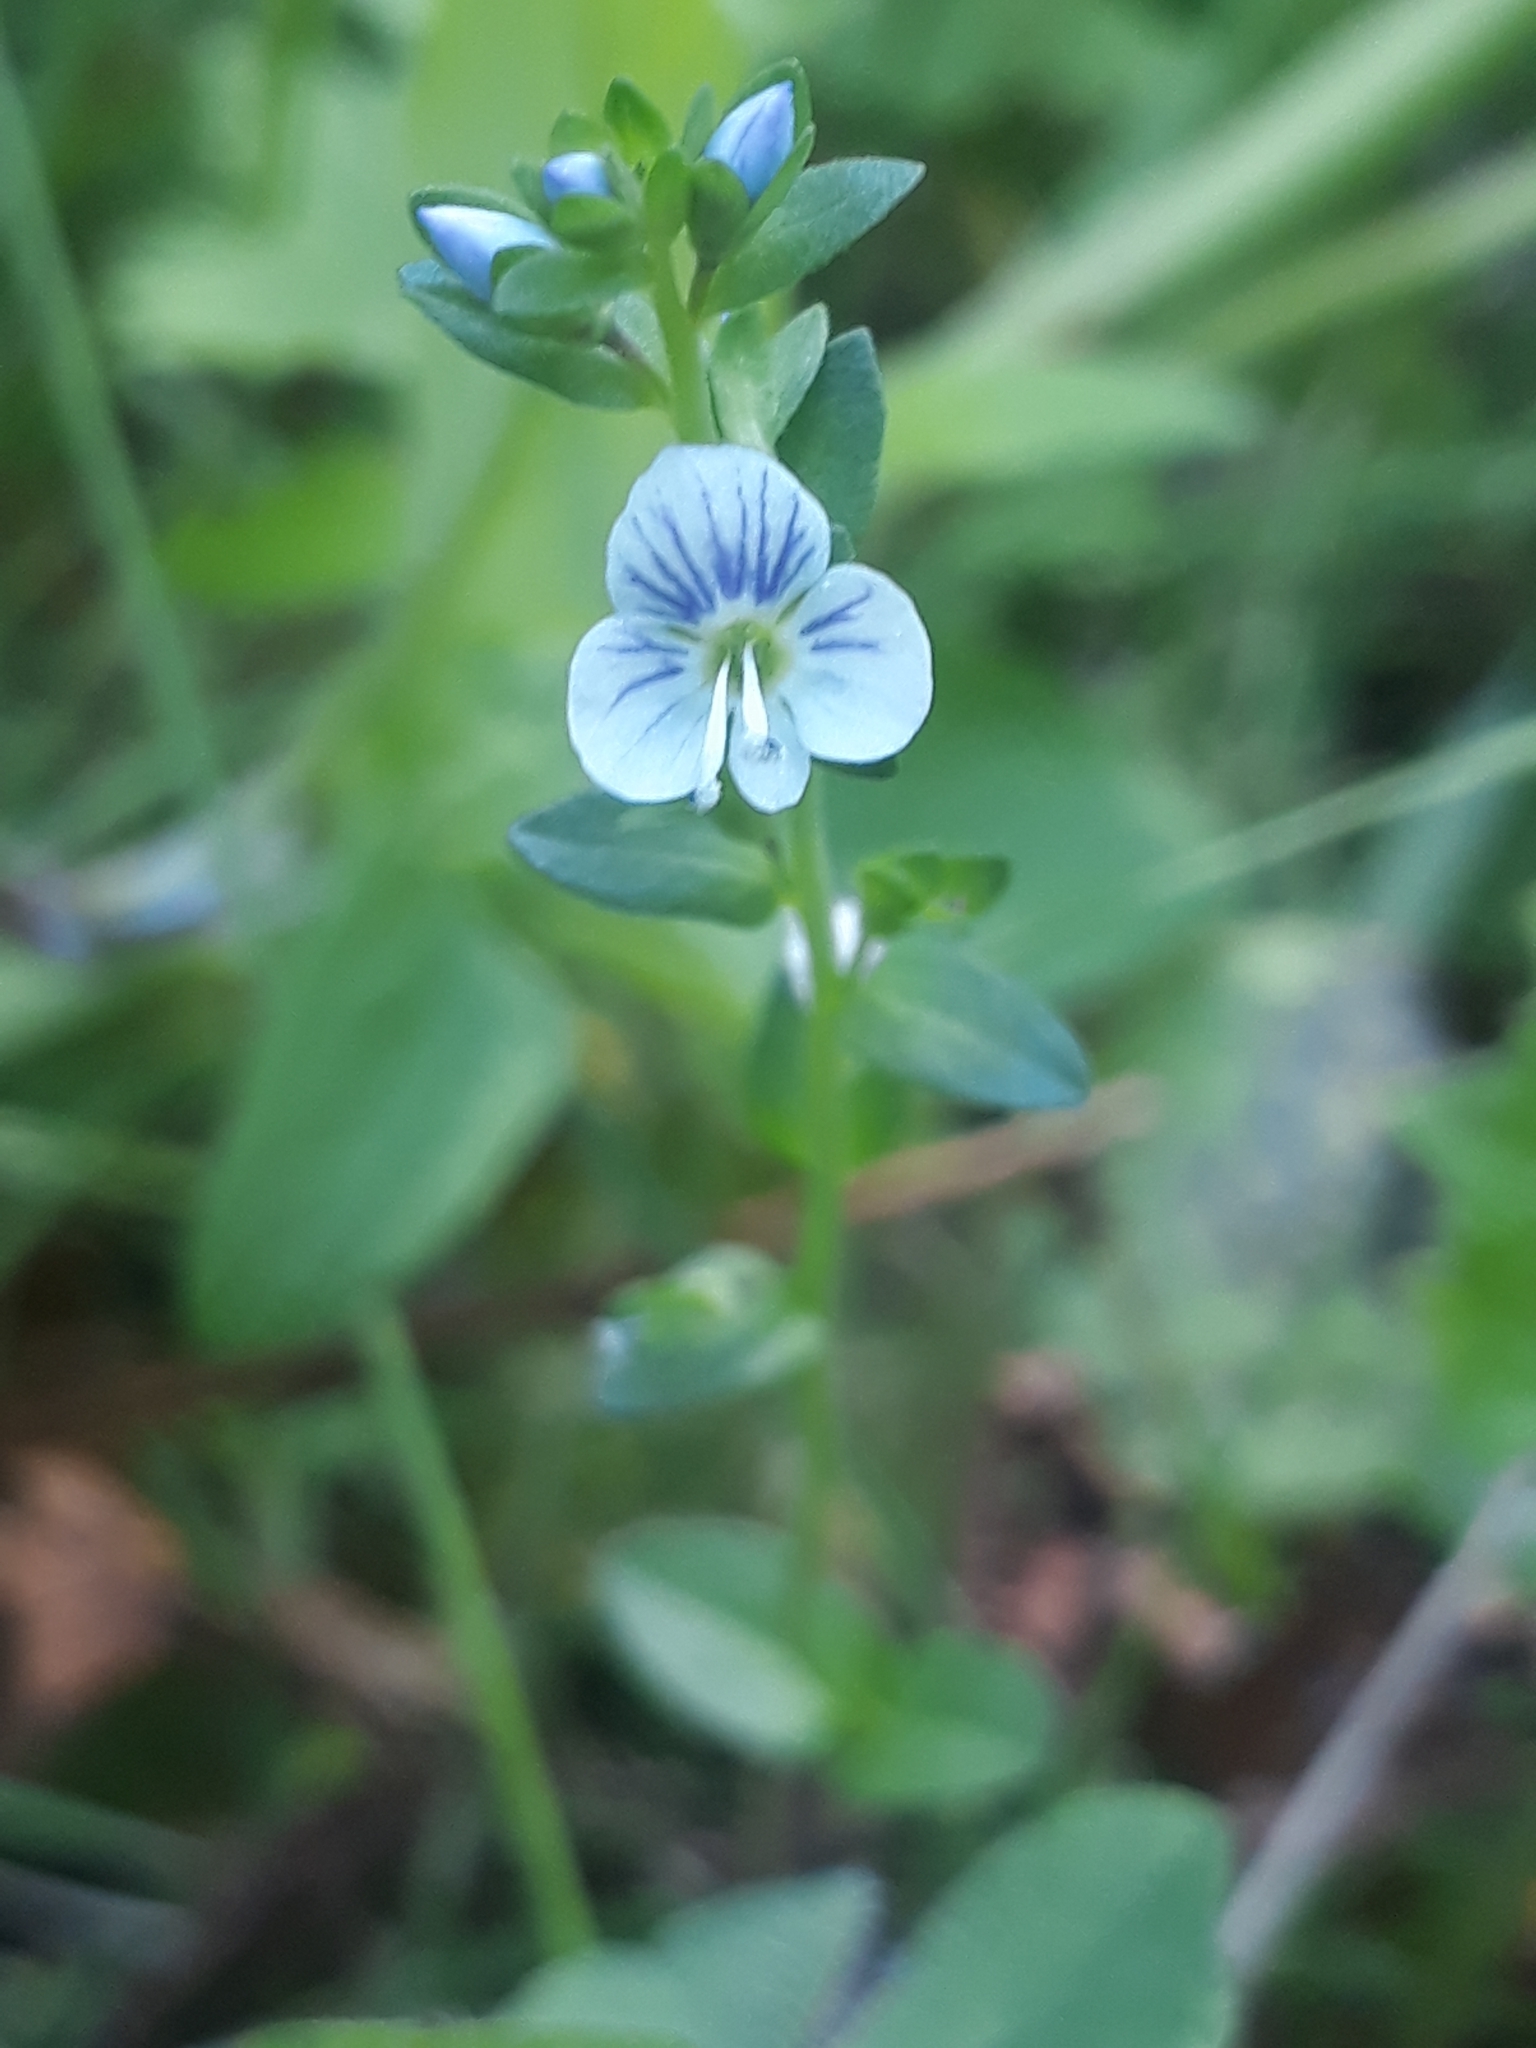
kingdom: Plantae
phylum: Tracheophyta
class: Magnoliopsida
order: Lamiales
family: Plantaginaceae
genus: Veronica
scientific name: Veronica serpyllifolia
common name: Thyme-leaved speedwell
